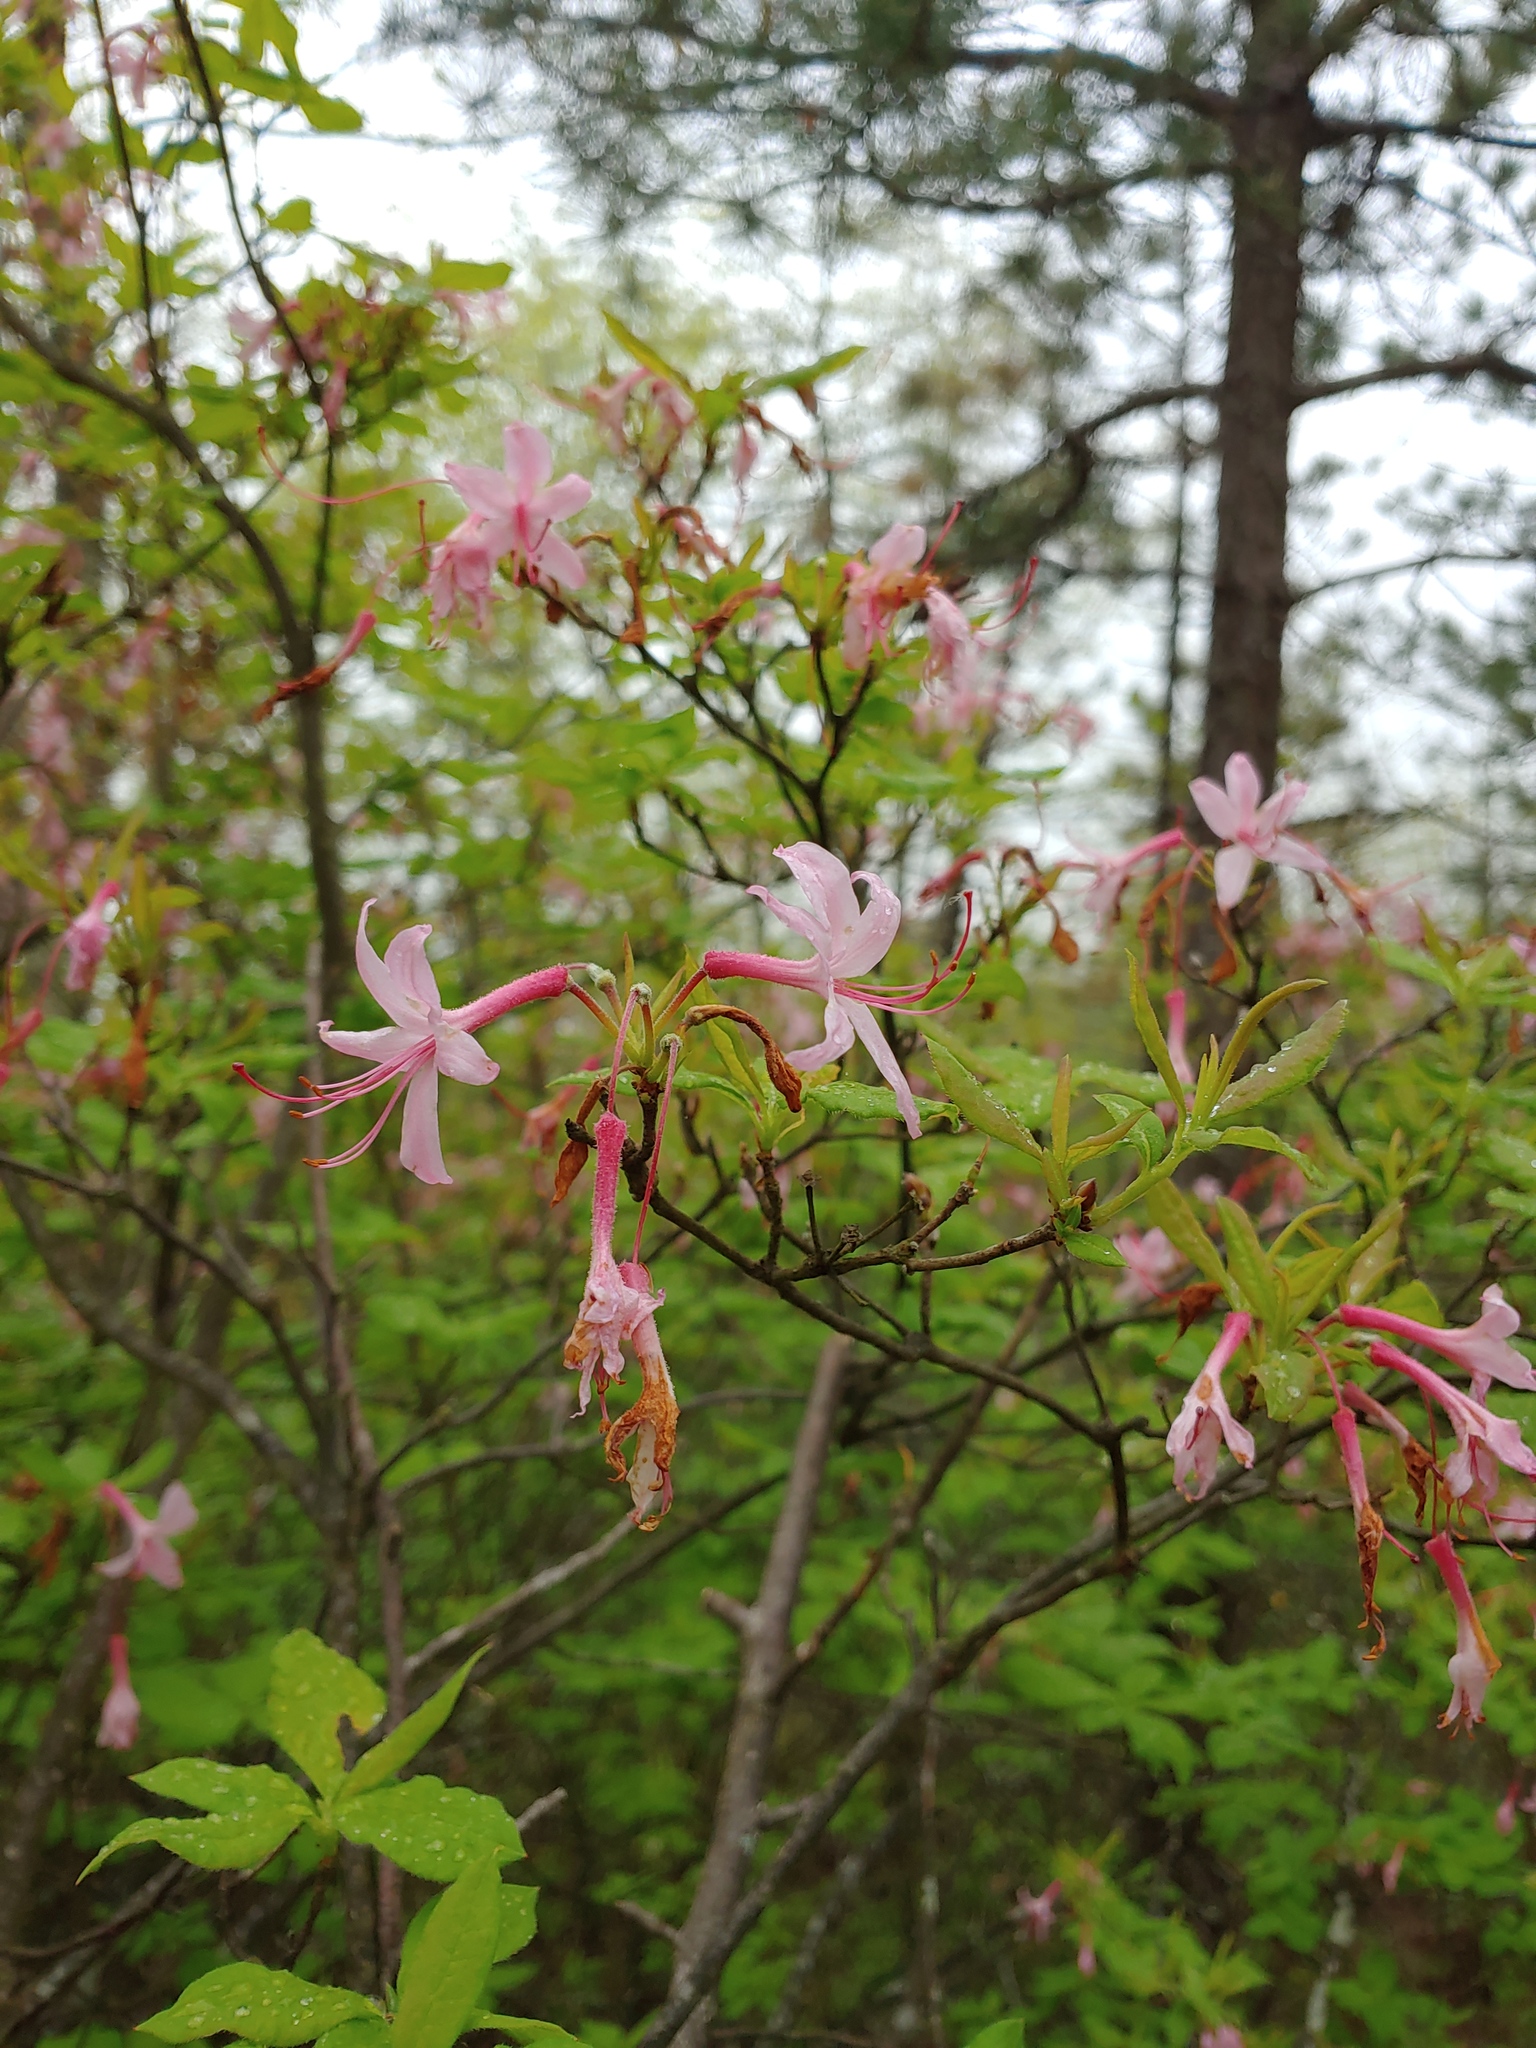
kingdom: Plantae
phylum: Tracheophyta
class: Magnoliopsida
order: Ericales
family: Ericaceae
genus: Rhododendron
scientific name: Rhododendron periclymenoides
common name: Election-pink
